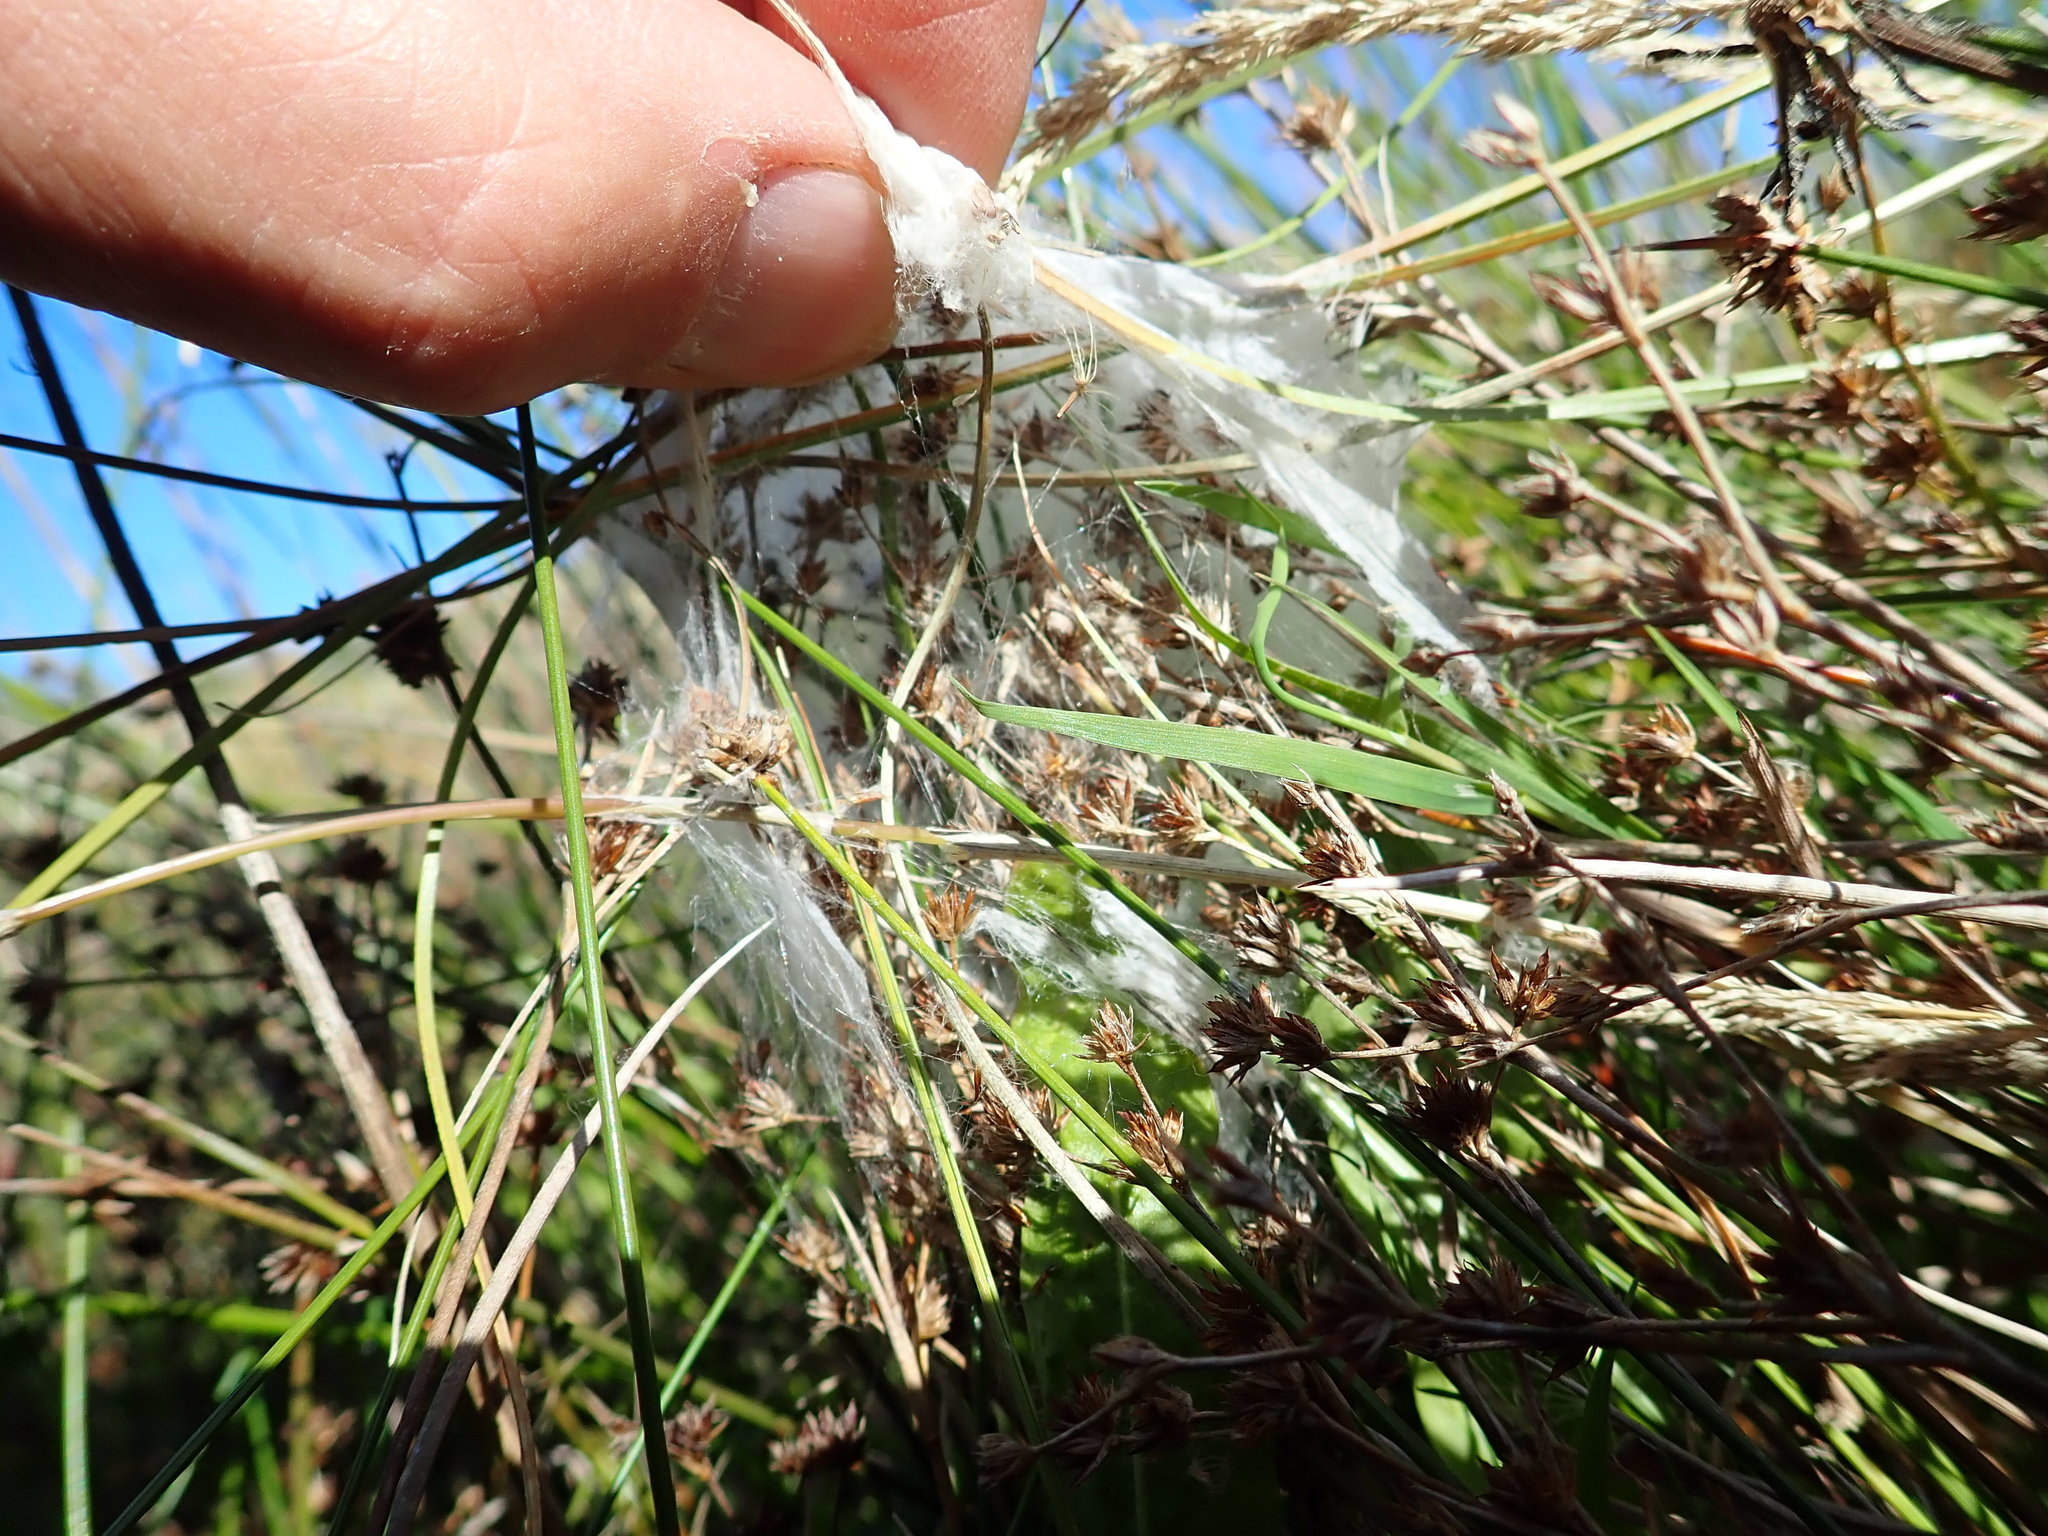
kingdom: Animalia
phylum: Arthropoda
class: Arachnida
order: Araneae
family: Pisauridae
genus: Dolomedes
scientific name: Dolomedes minor
